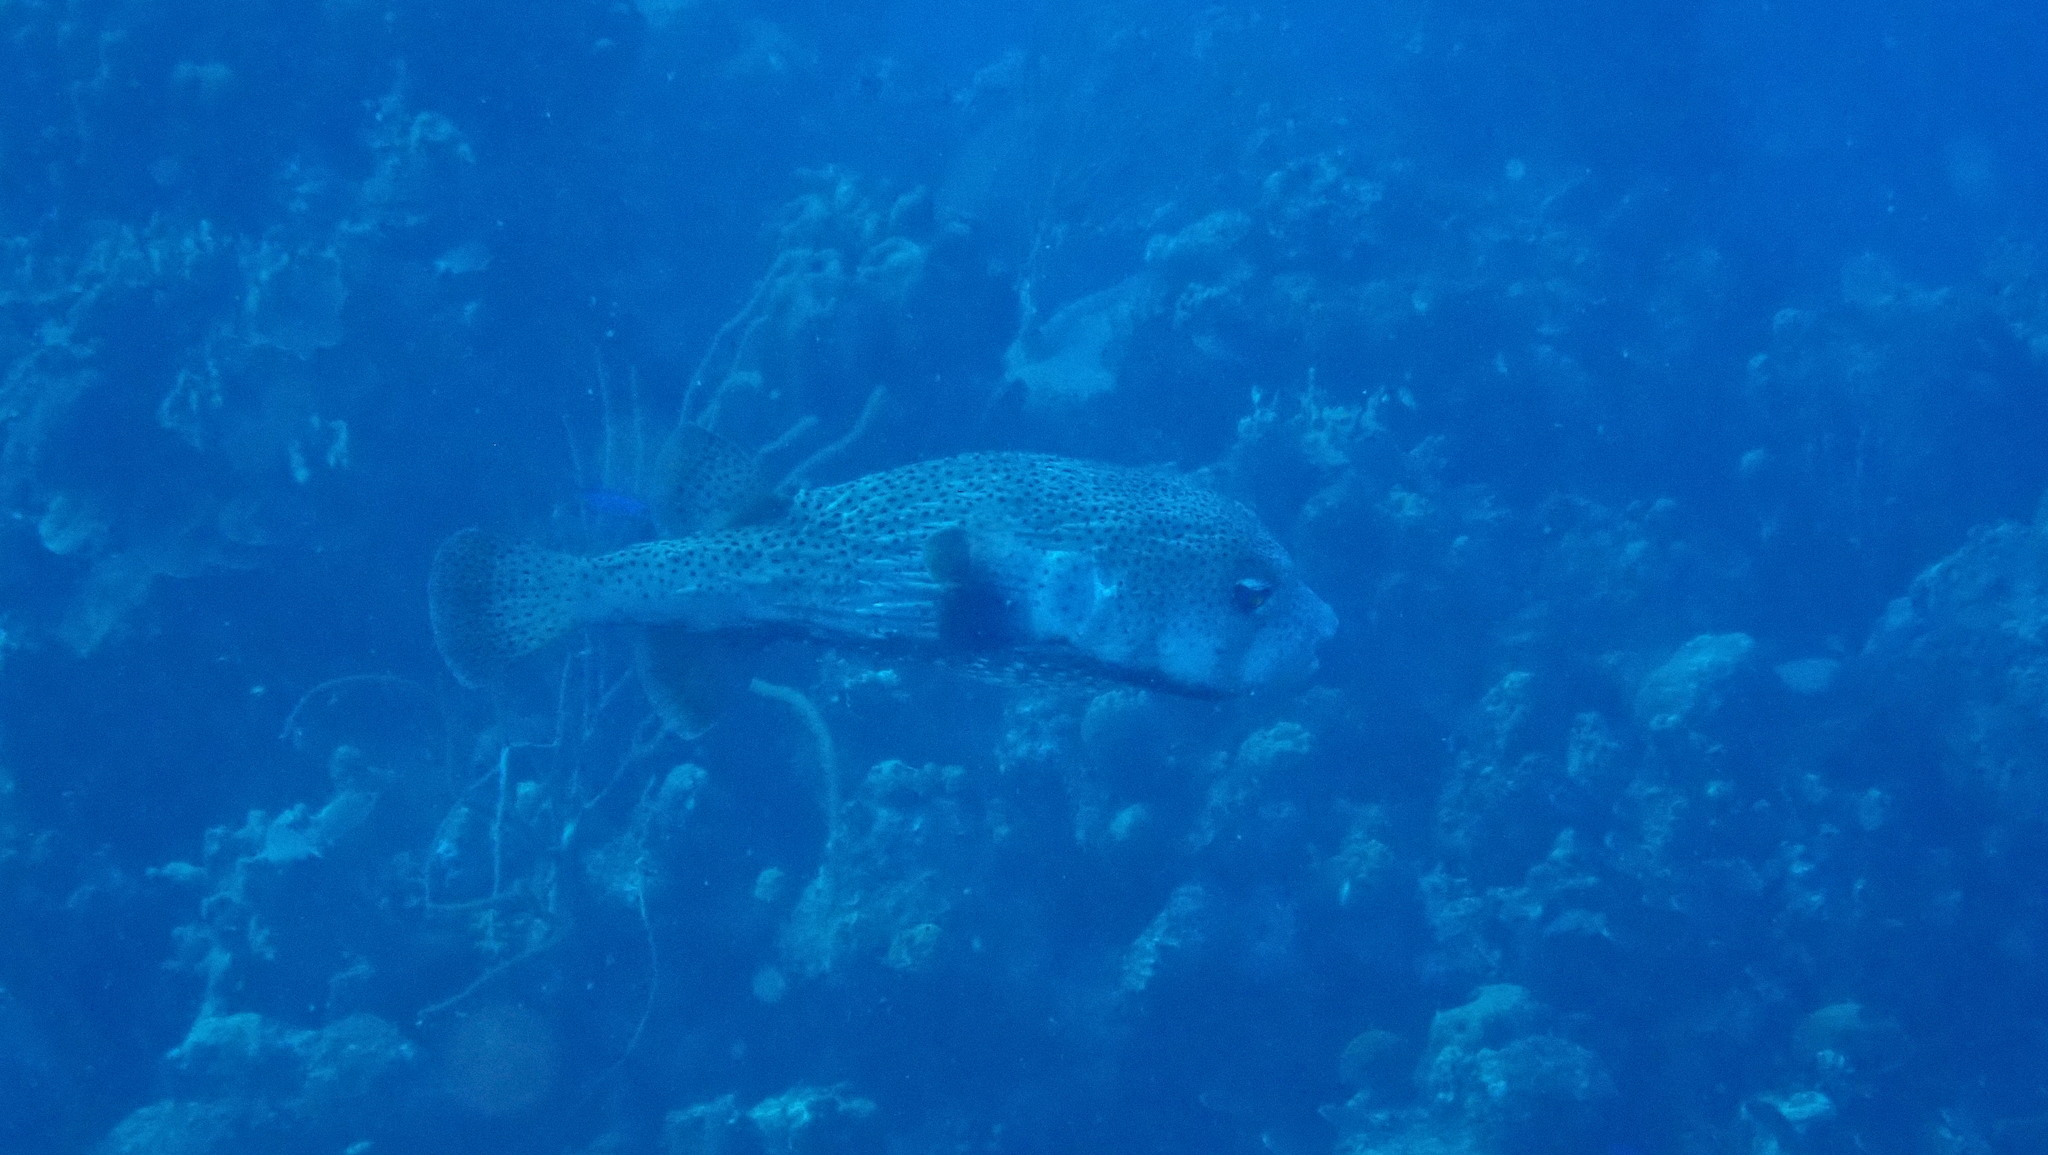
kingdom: Animalia
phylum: Chordata
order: Tetraodontiformes
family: Diodontidae
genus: Diodon
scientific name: Diodon hystrix
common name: Giant porcupinefish
